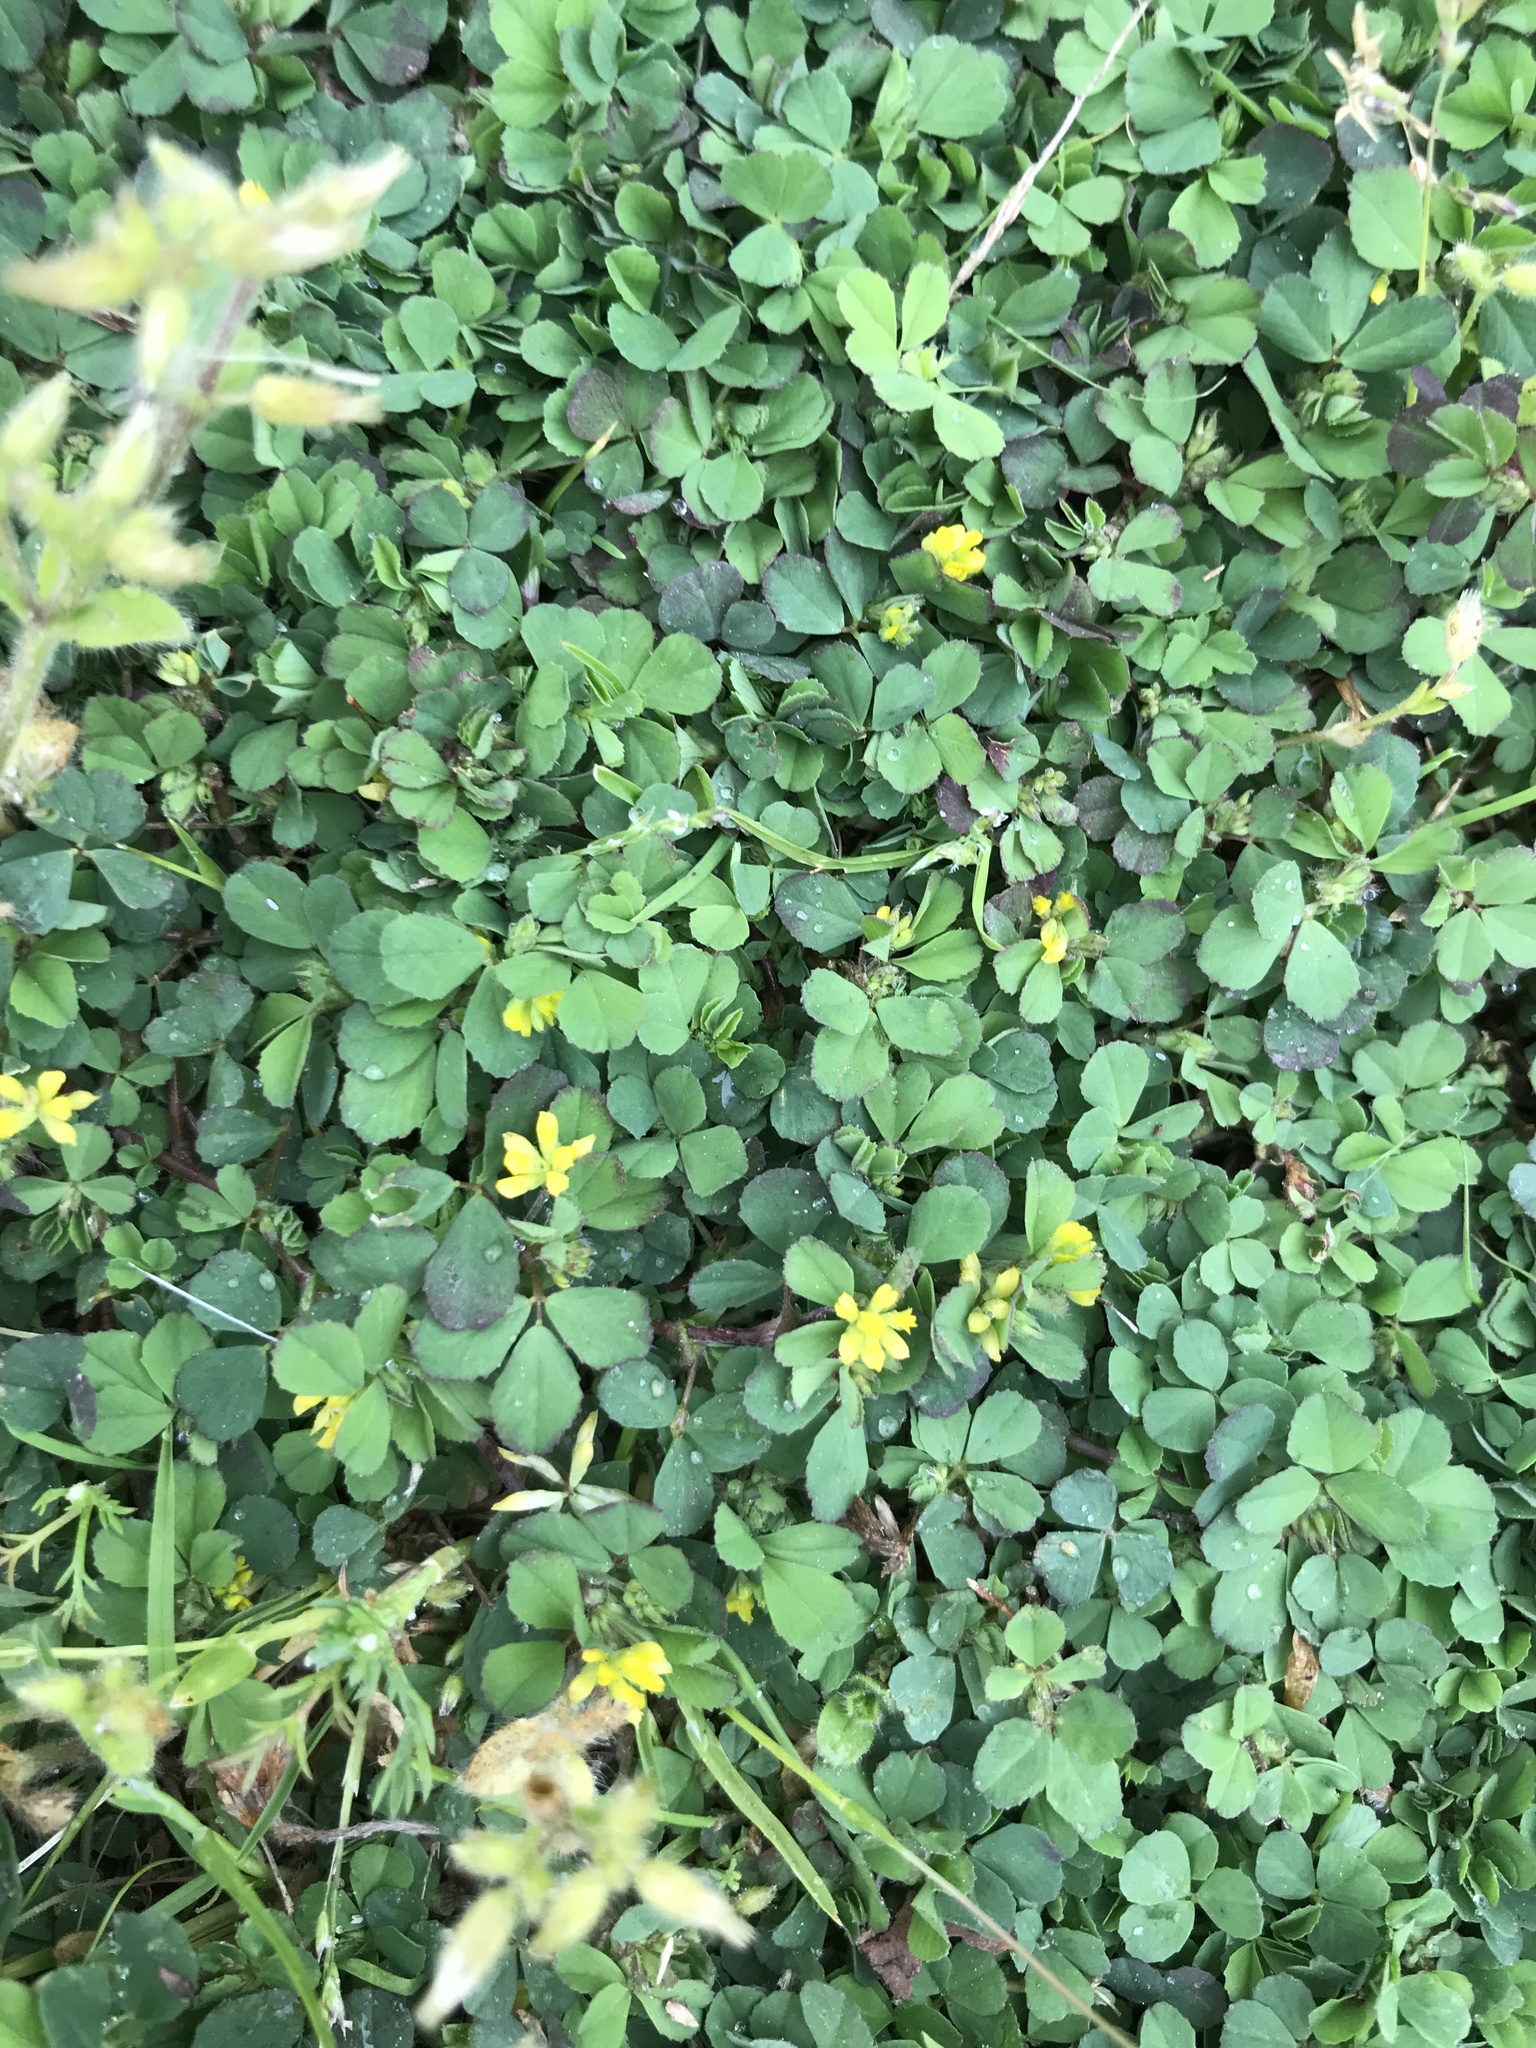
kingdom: Plantae
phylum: Tracheophyta
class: Magnoliopsida
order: Fabales
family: Fabaceae
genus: Trifolium
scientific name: Trifolium dubium
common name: Suckling clover
